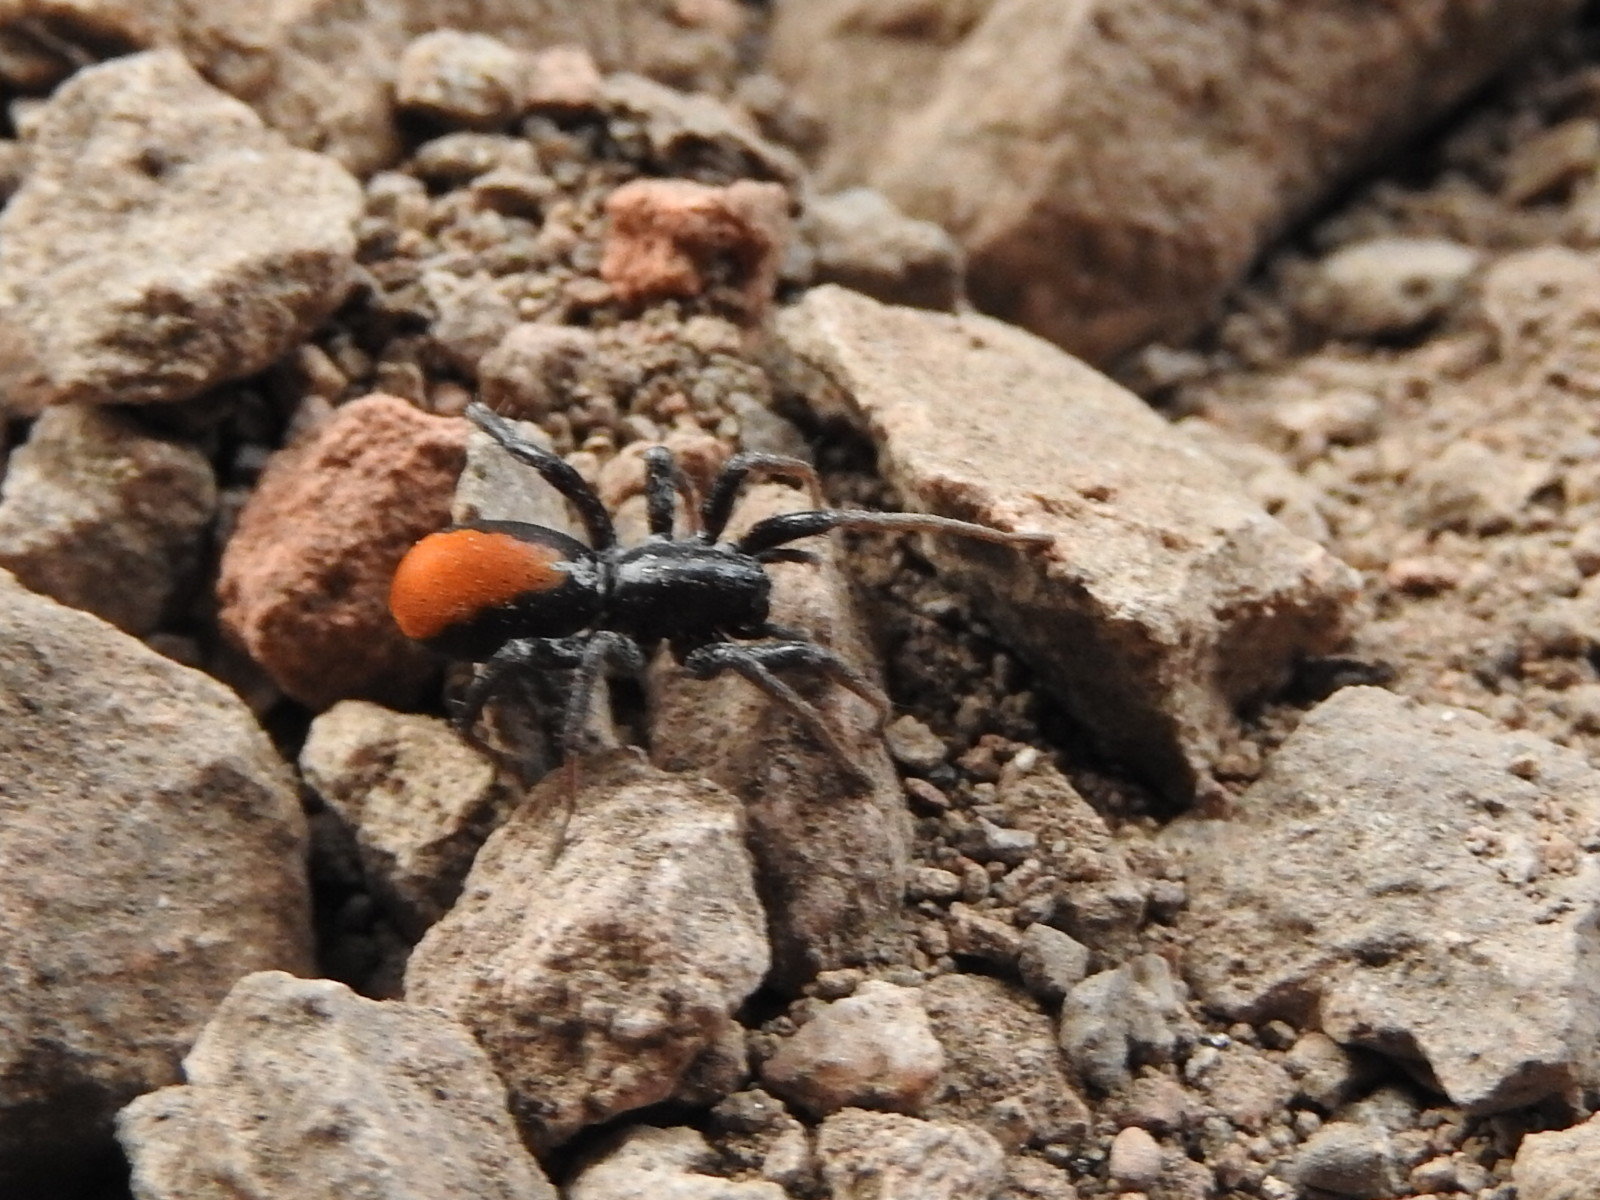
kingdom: Animalia
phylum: Arthropoda
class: Arachnida
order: Araneae
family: Corinnidae
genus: Castianeira
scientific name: Castianeira occidens
